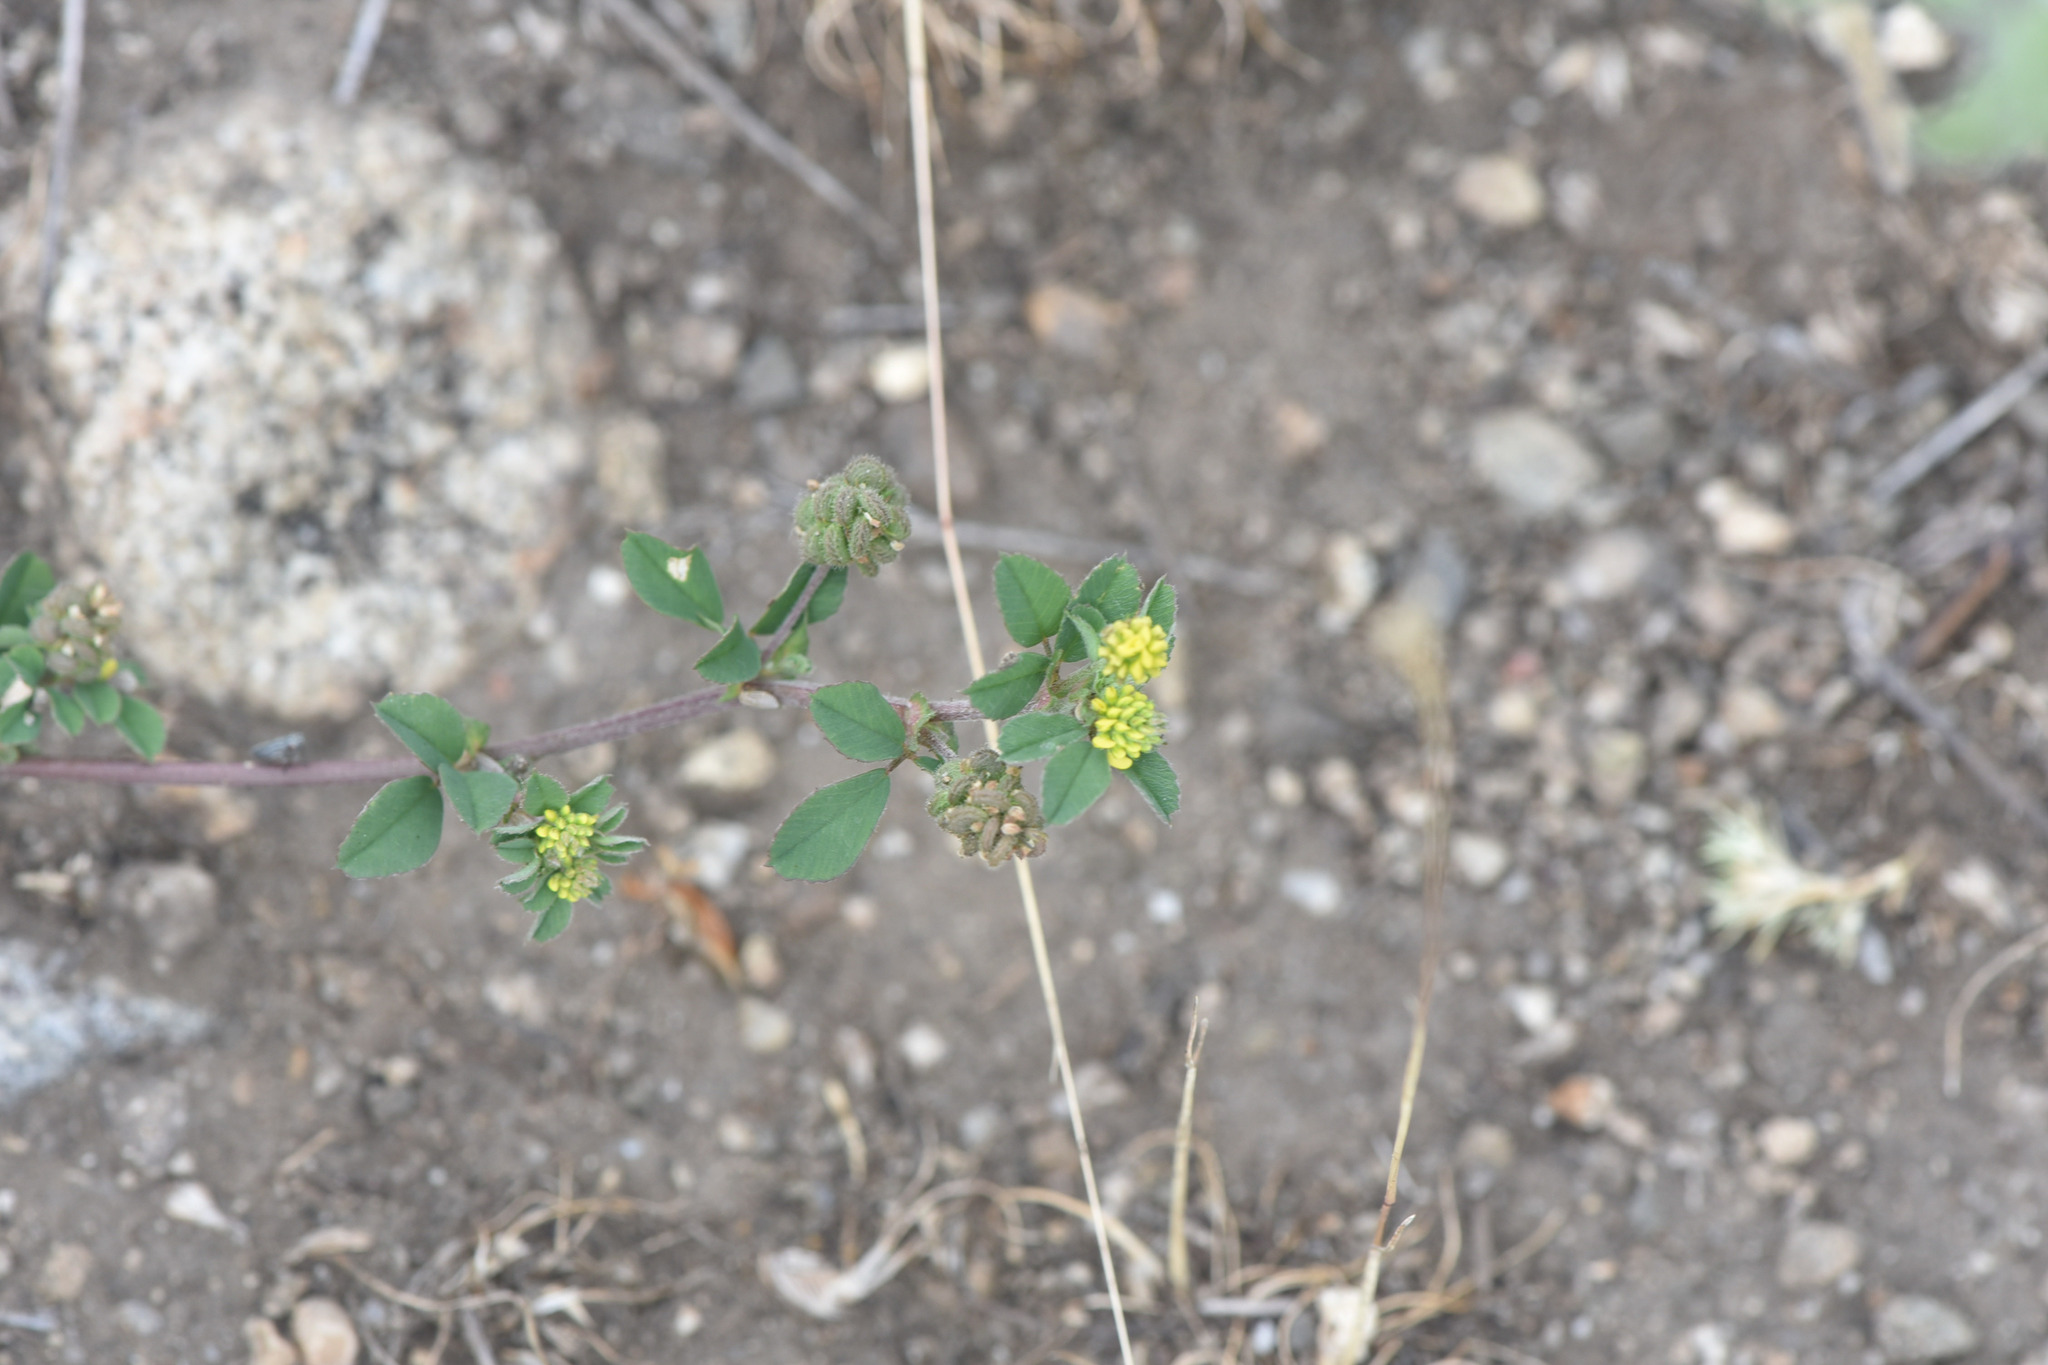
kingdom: Plantae
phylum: Tracheophyta
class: Magnoliopsida
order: Fabales
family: Fabaceae
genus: Medicago
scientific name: Medicago lupulina
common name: Black medick
